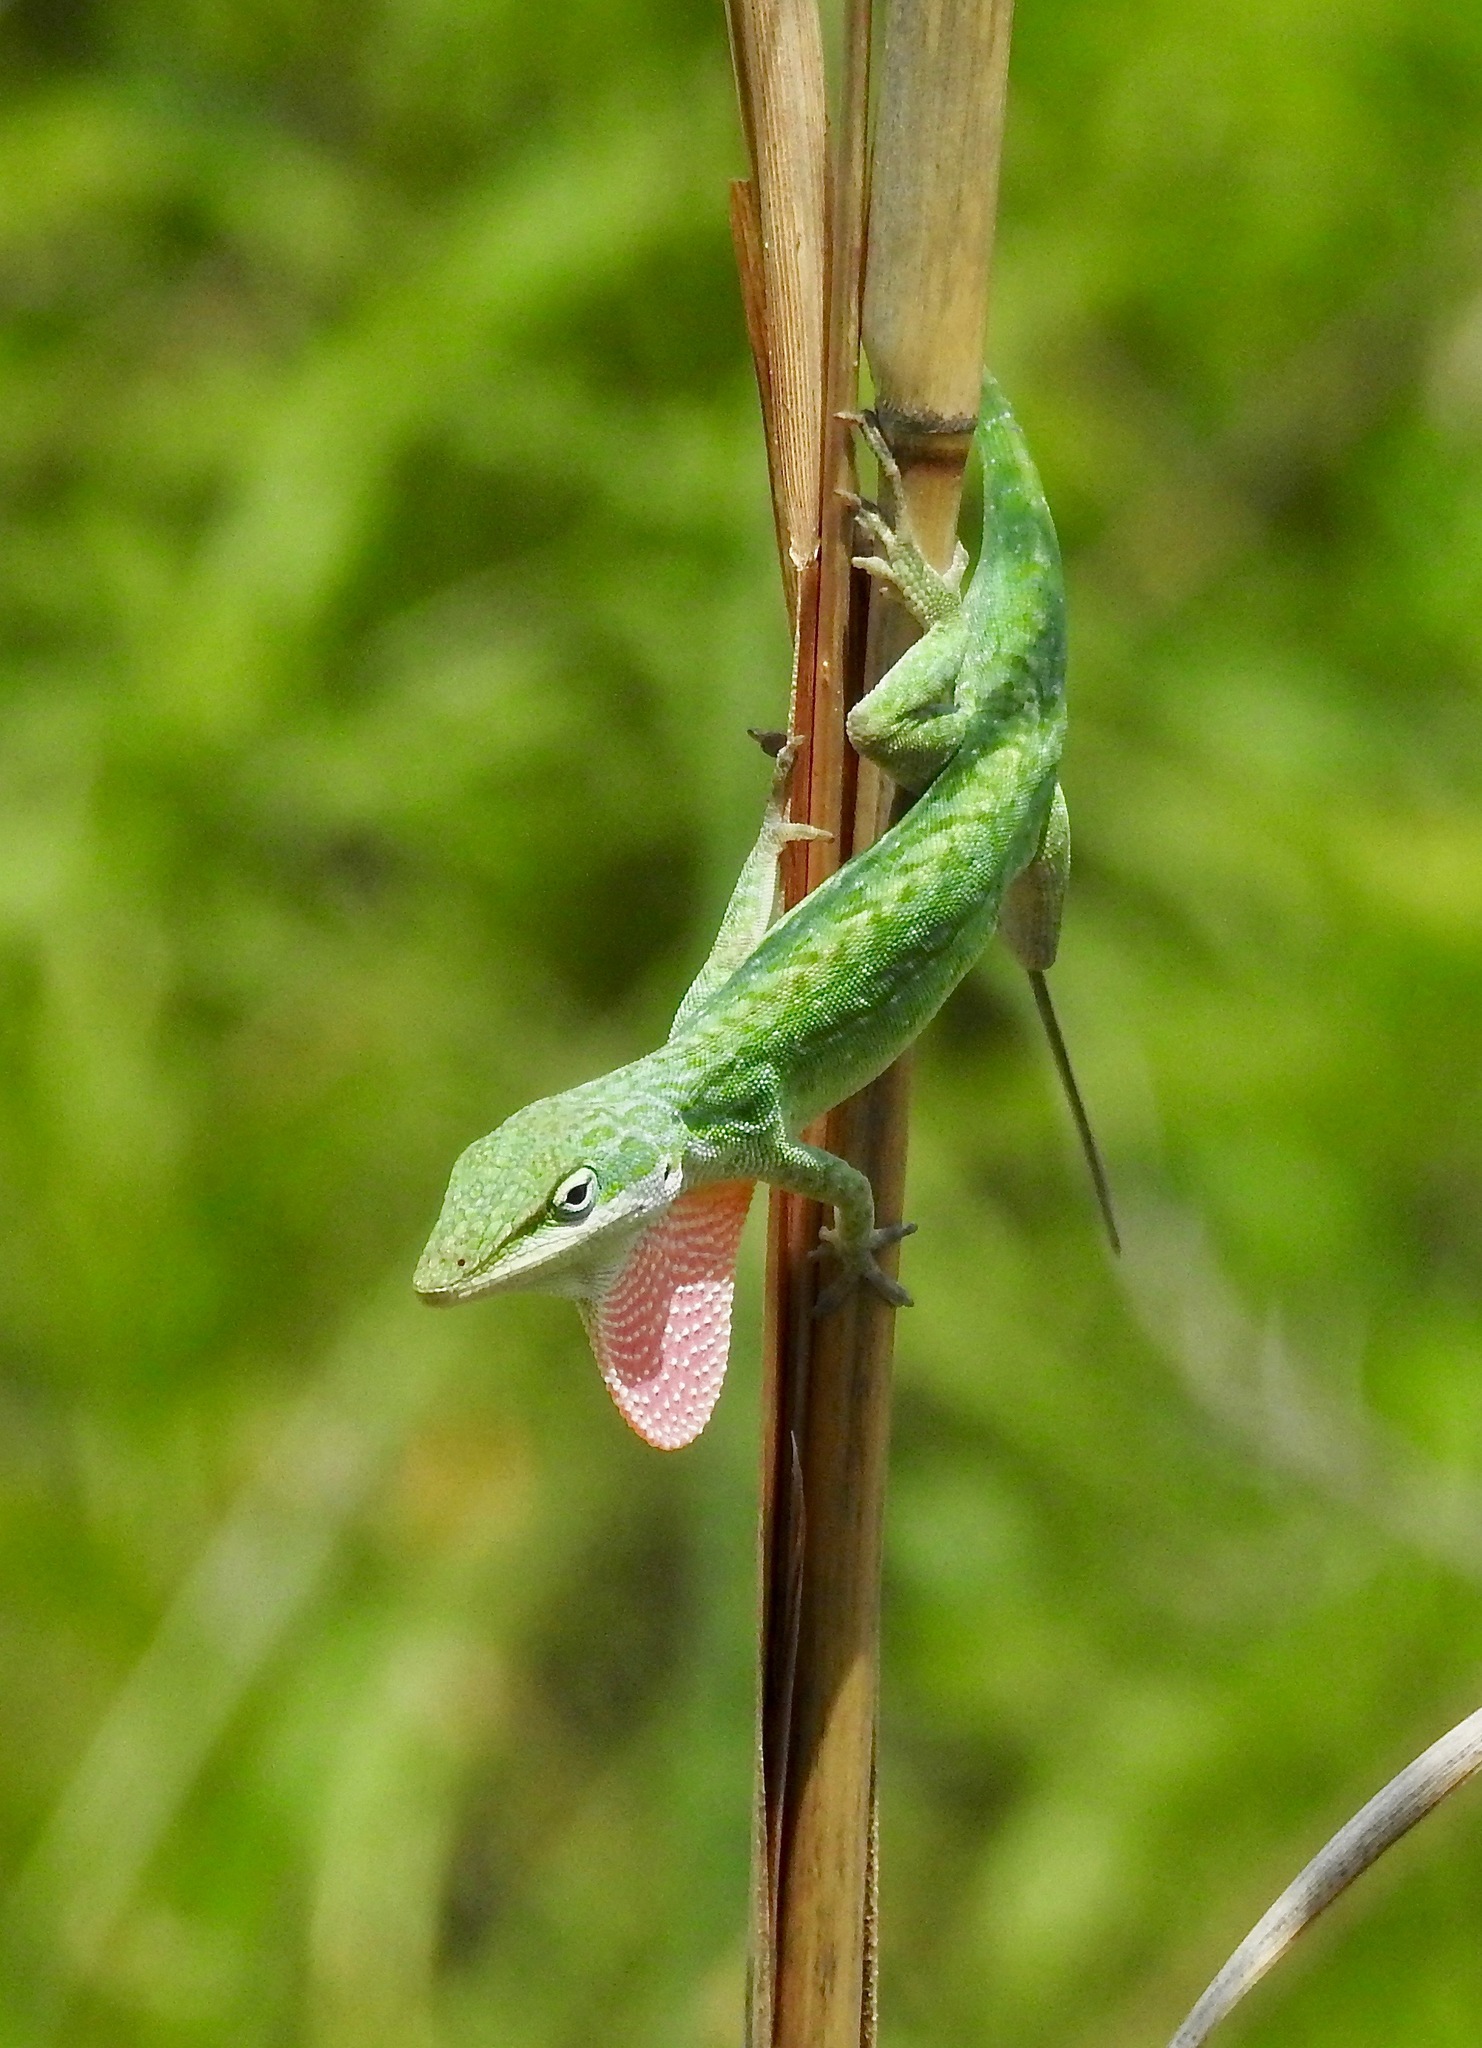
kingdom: Animalia
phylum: Chordata
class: Squamata
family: Dactyloidae
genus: Anolis
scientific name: Anolis carolinensis
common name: Green anole
